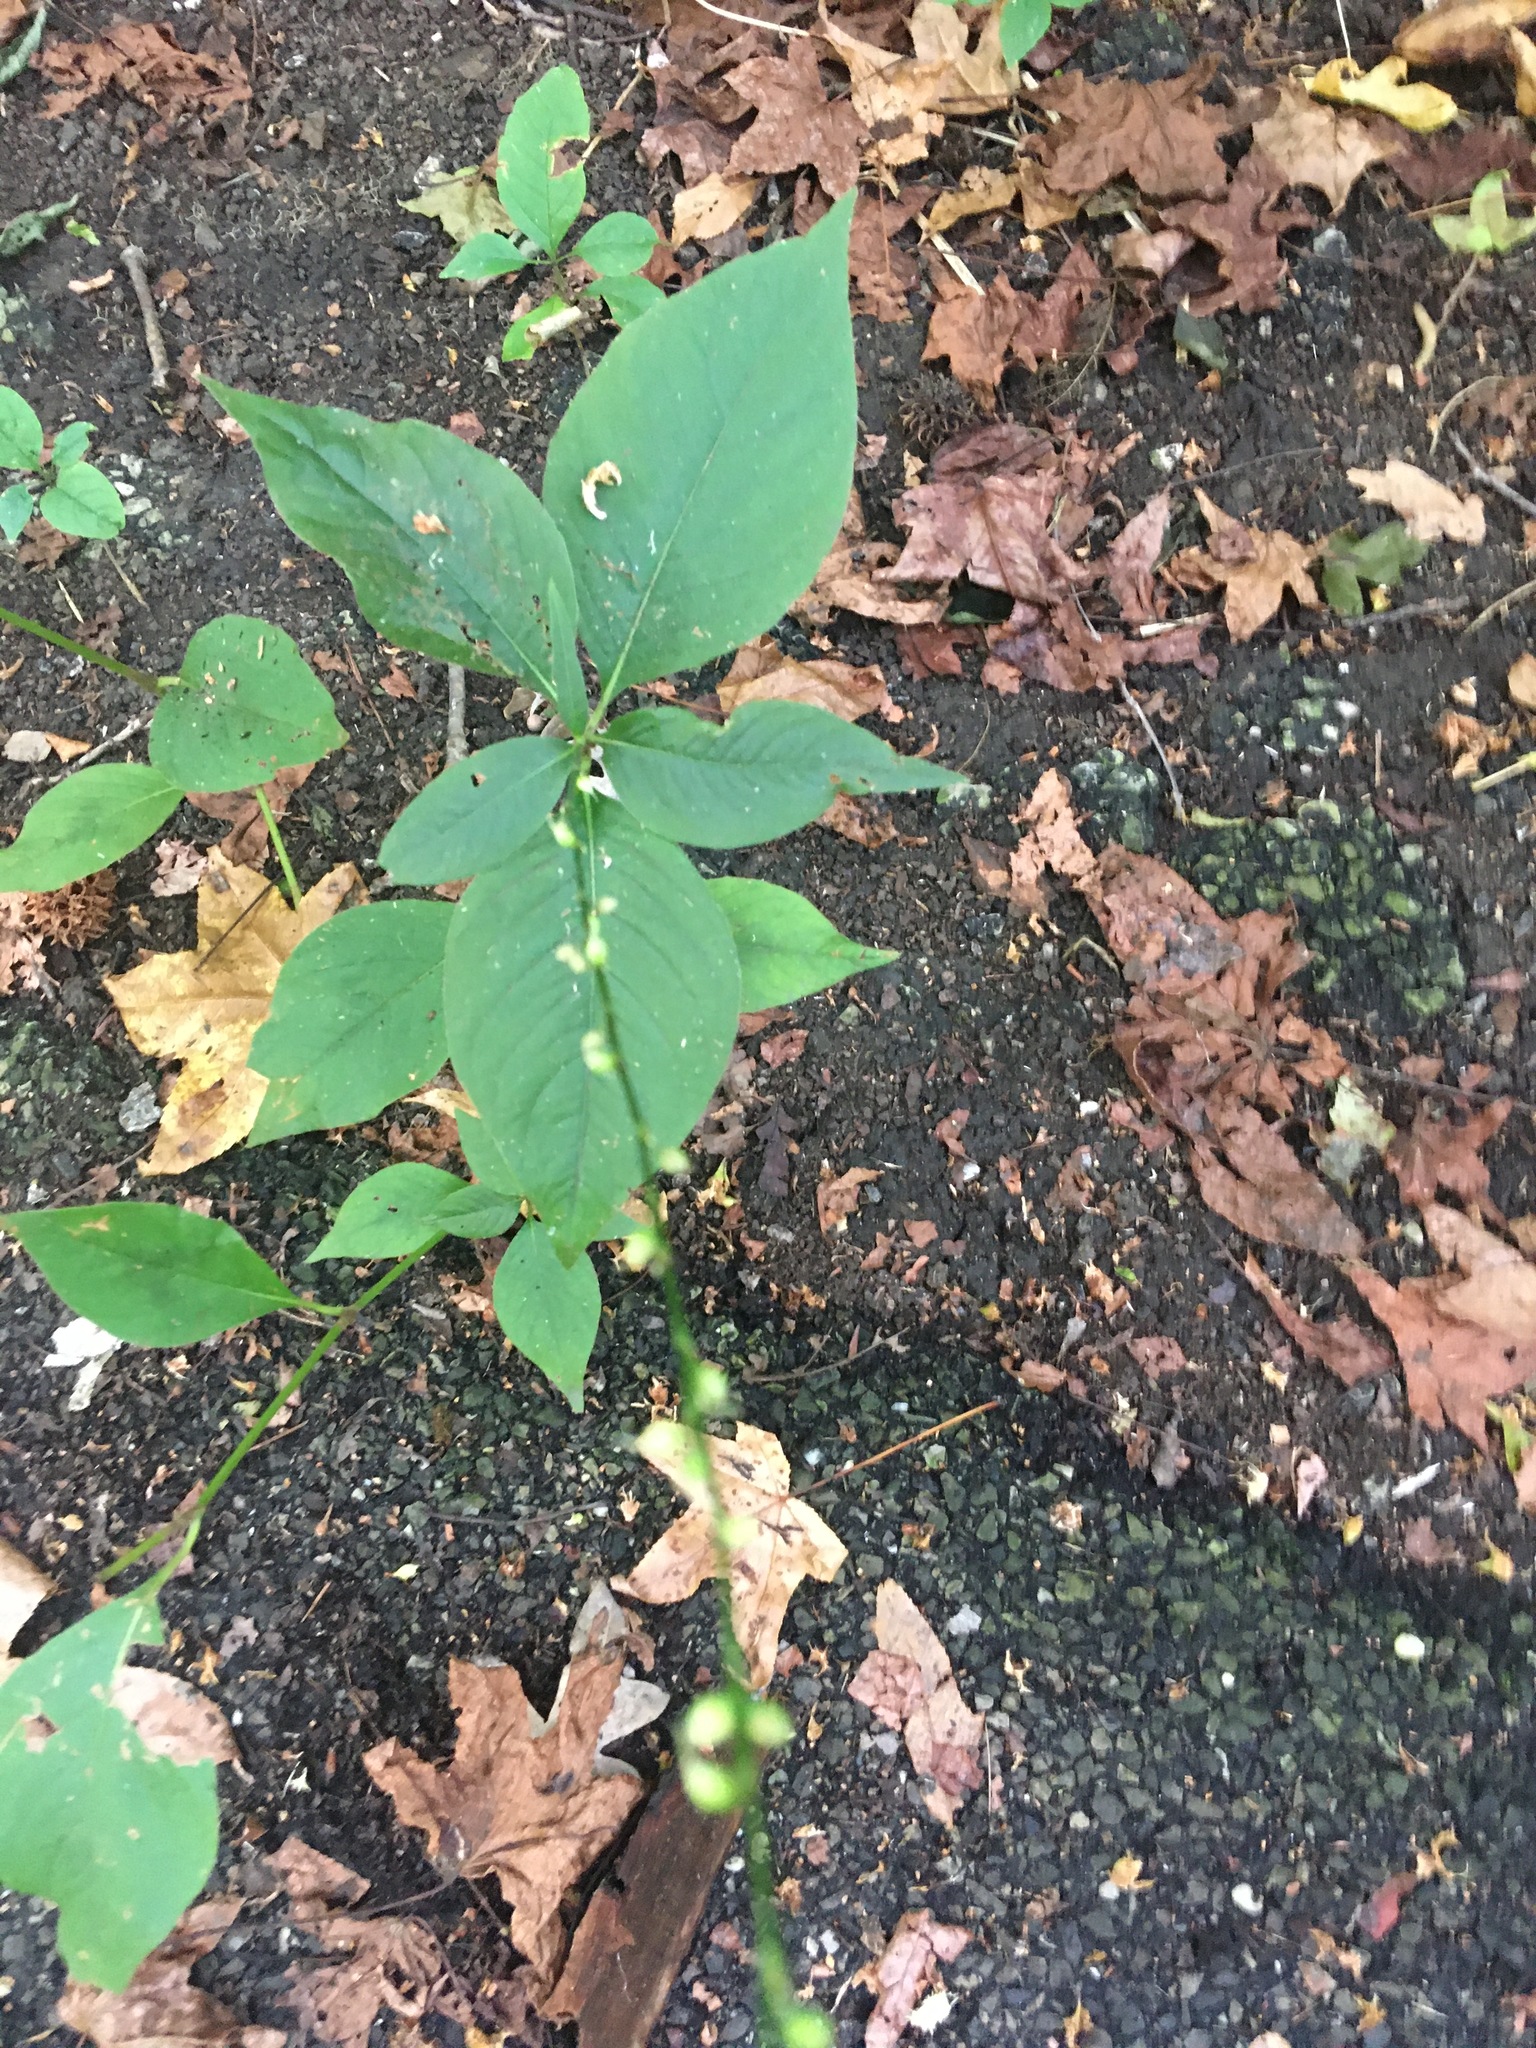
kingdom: Plantae
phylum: Tracheophyta
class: Magnoliopsida
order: Caryophyllales
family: Polygonaceae
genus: Persicaria
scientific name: Persicaria virginiana
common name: Jumpseed
